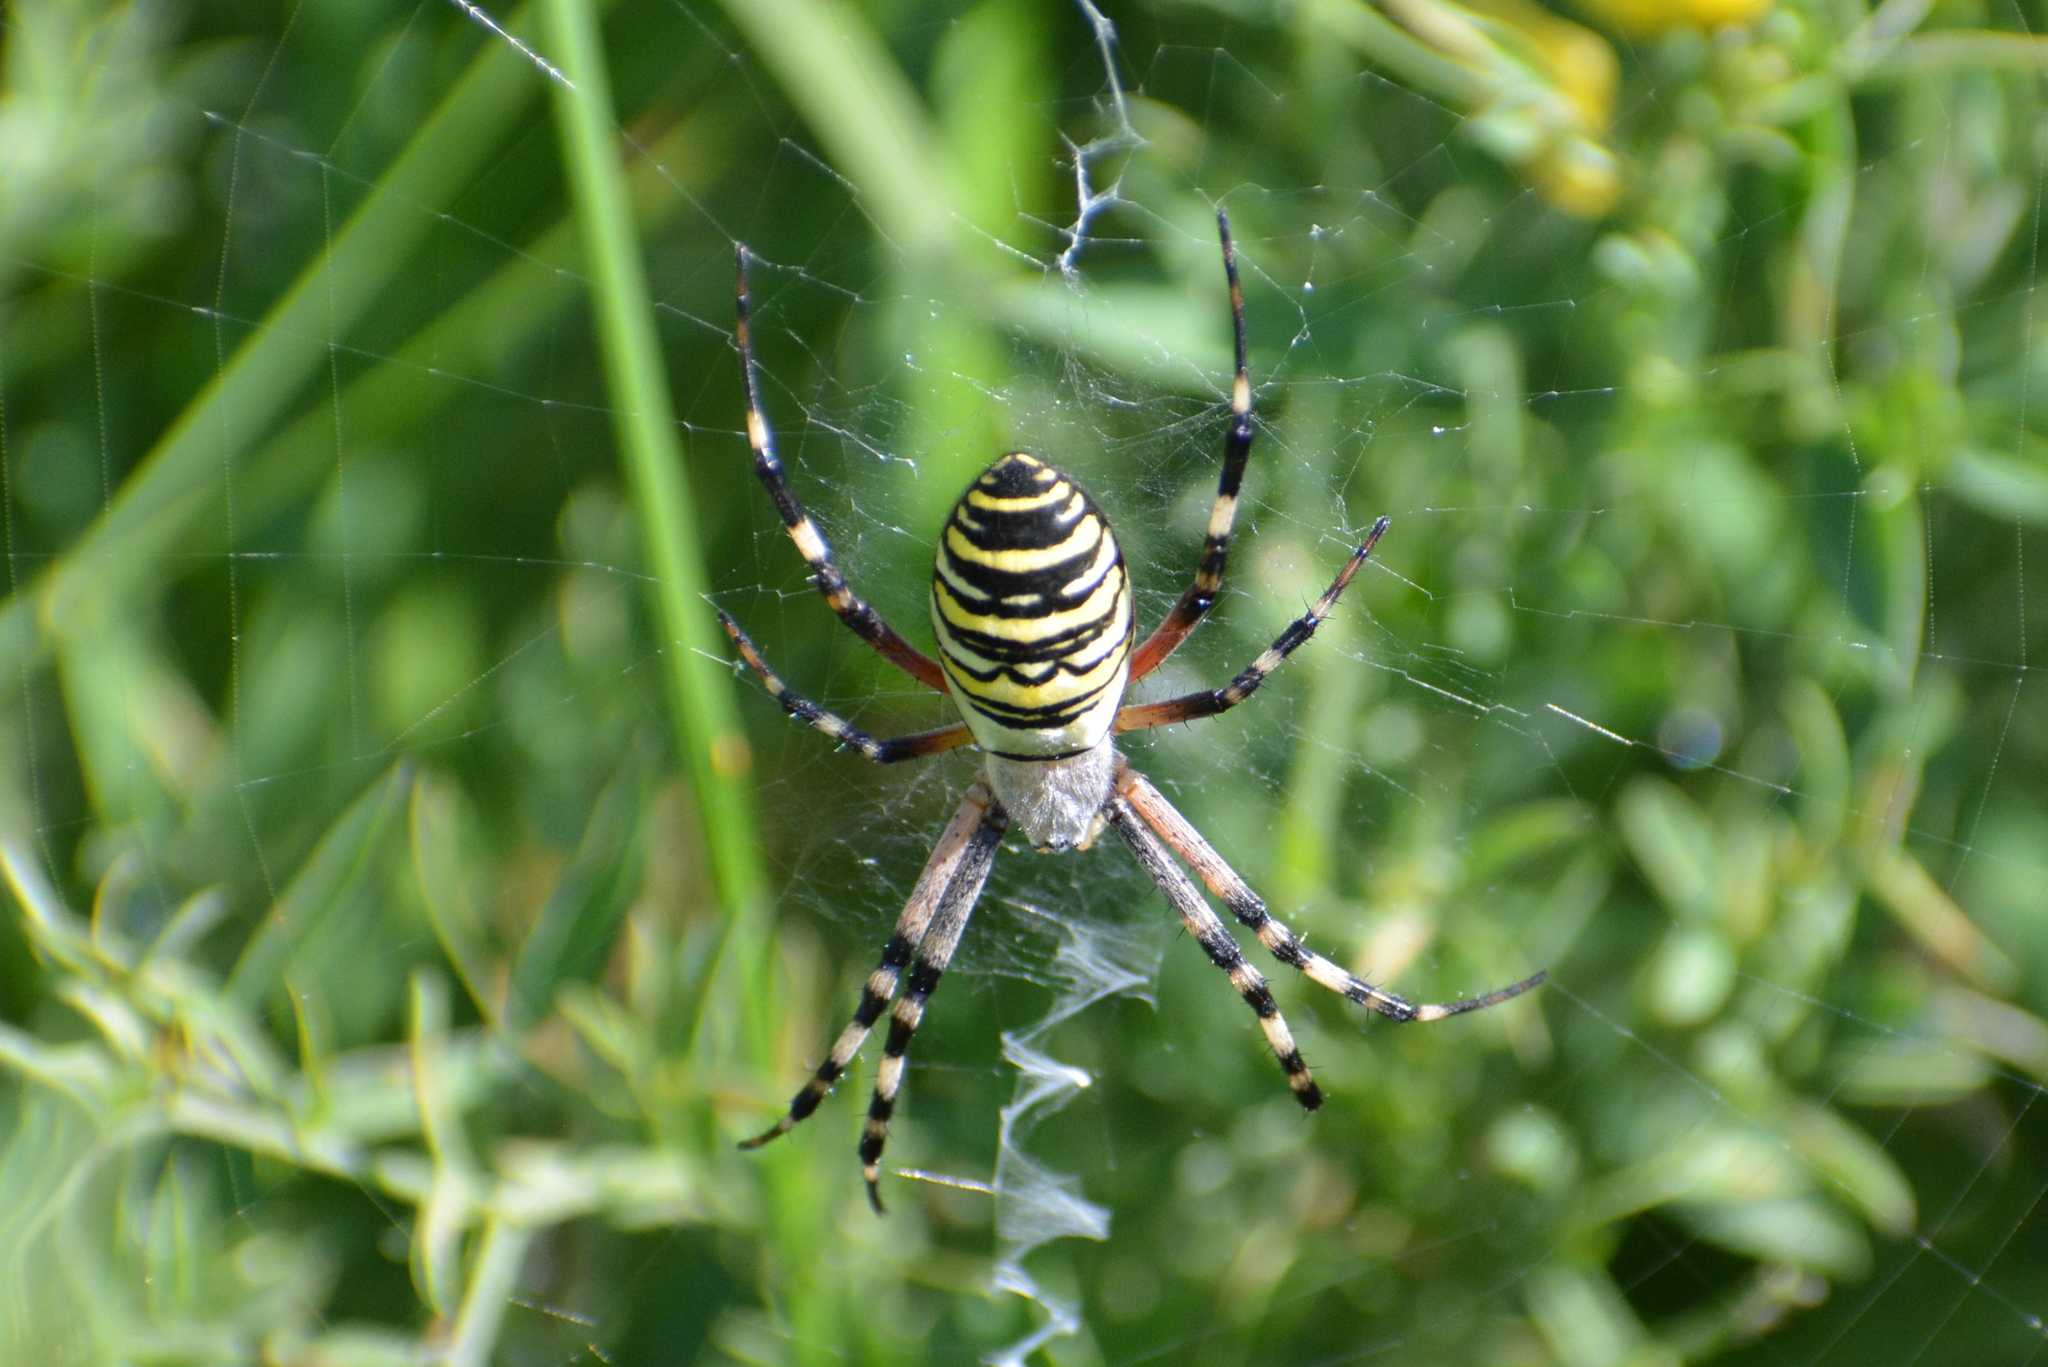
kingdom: Animalia
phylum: Arthropoda
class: Arachnida
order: Araneae
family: Araneidae
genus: Argiope
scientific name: Argiope bruennichi
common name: Wasp spider
